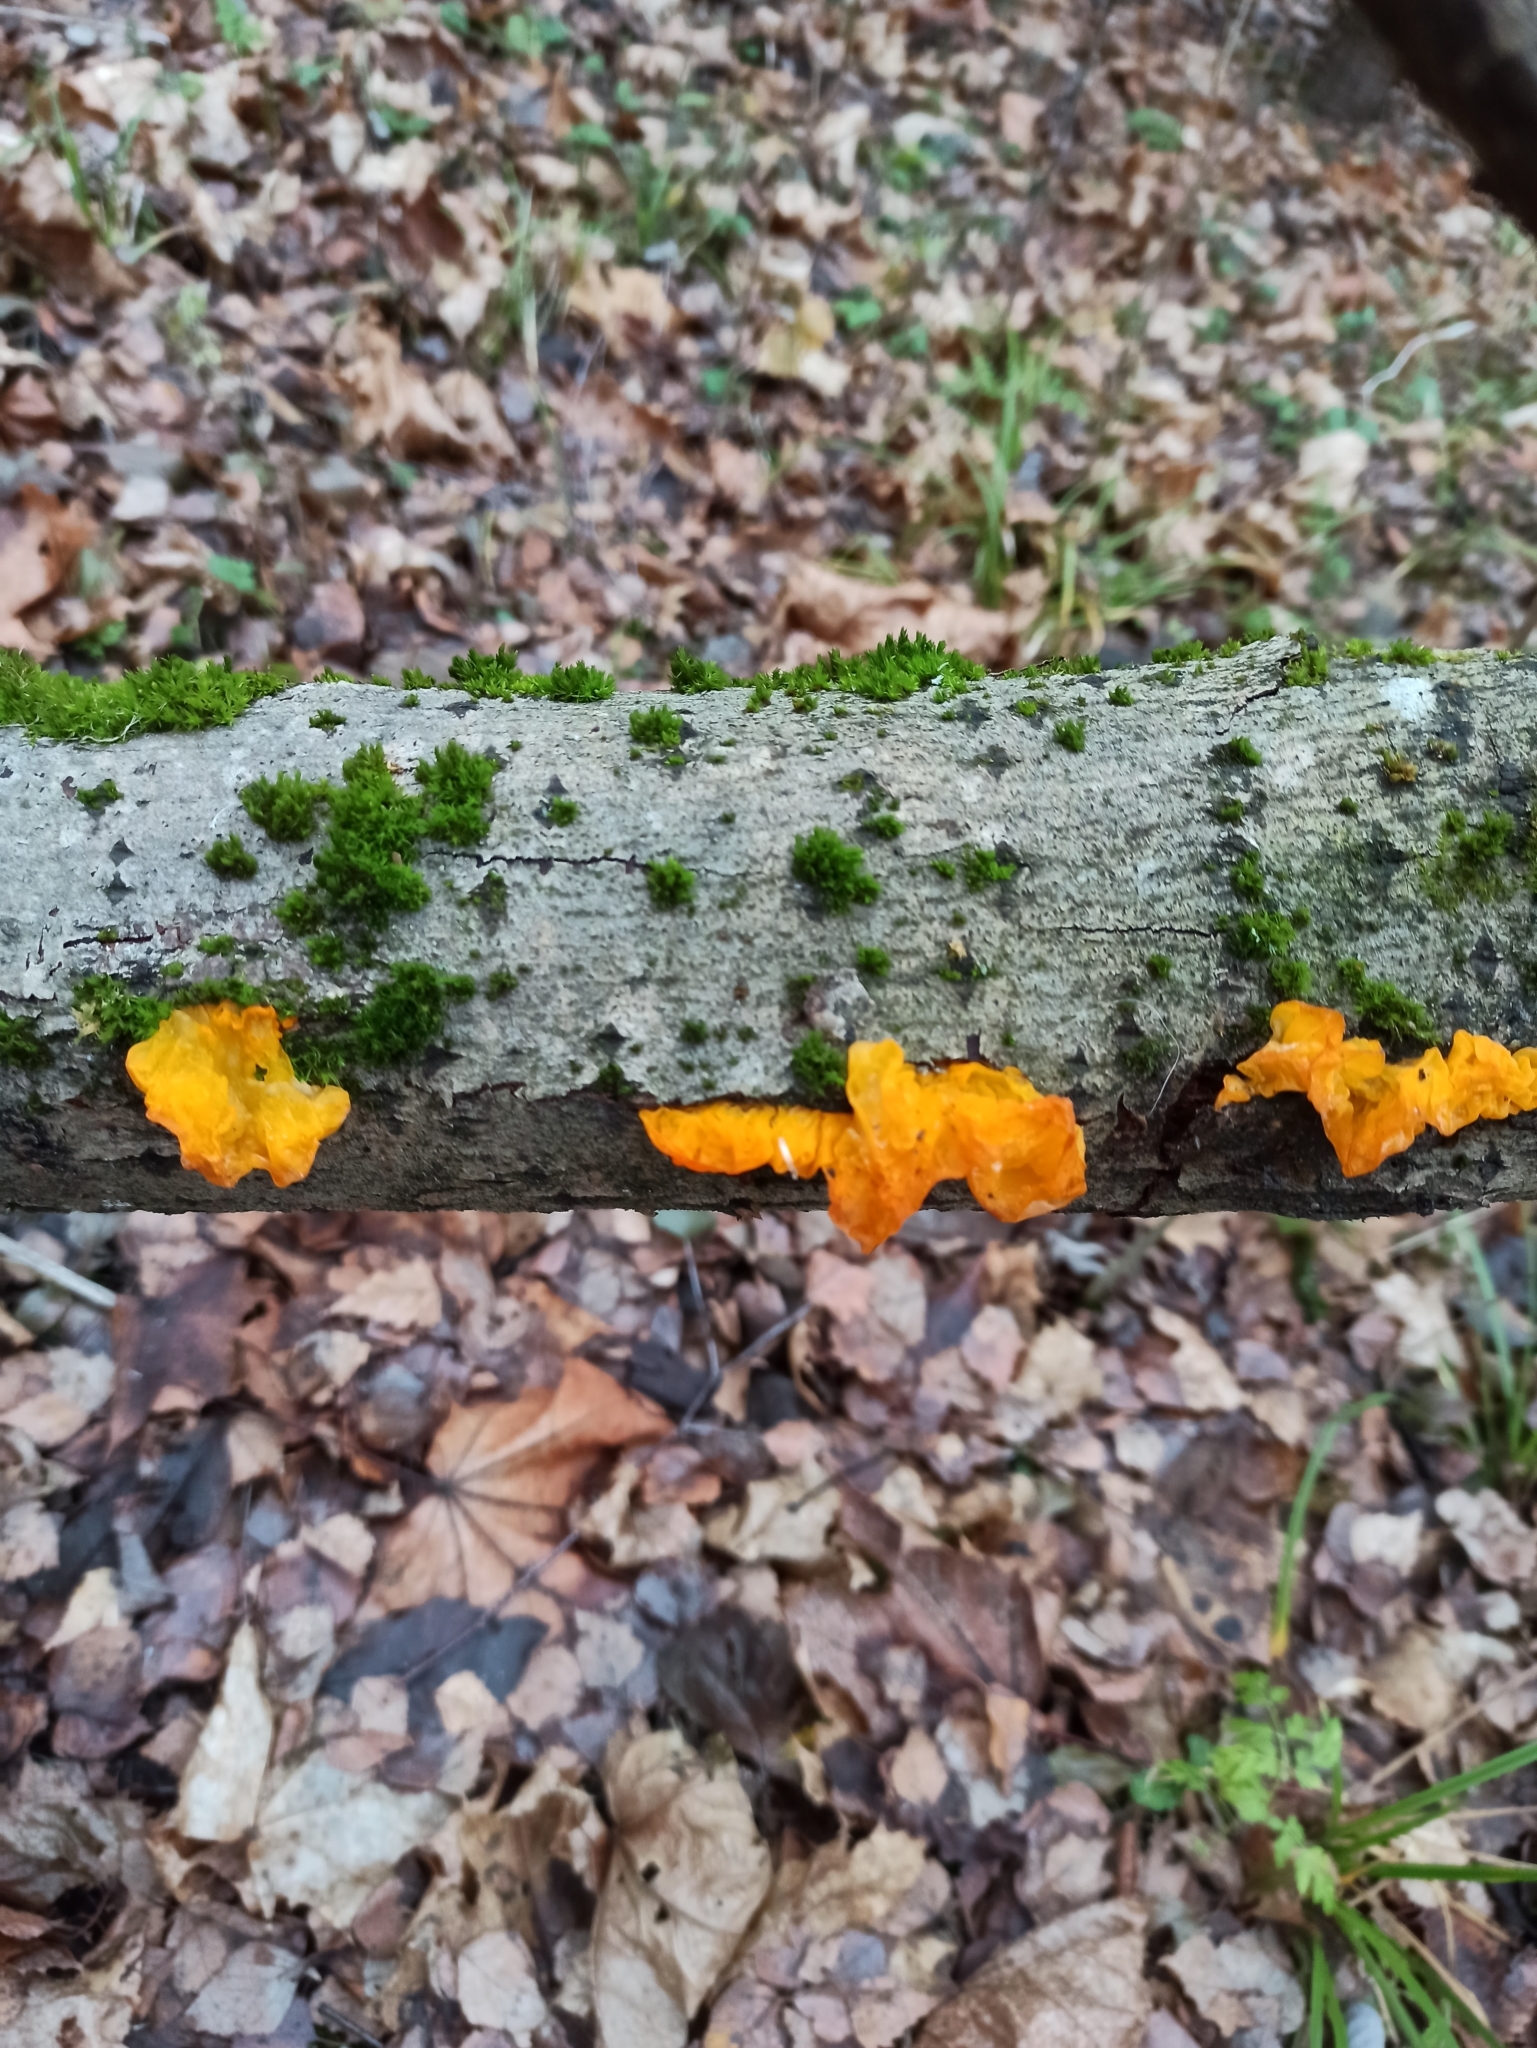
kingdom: Fungi
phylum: Basidiomycota
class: Tremellomycetes
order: Tremellales
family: Tremellaceae
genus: Tremella
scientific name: Tremella mesenterica
